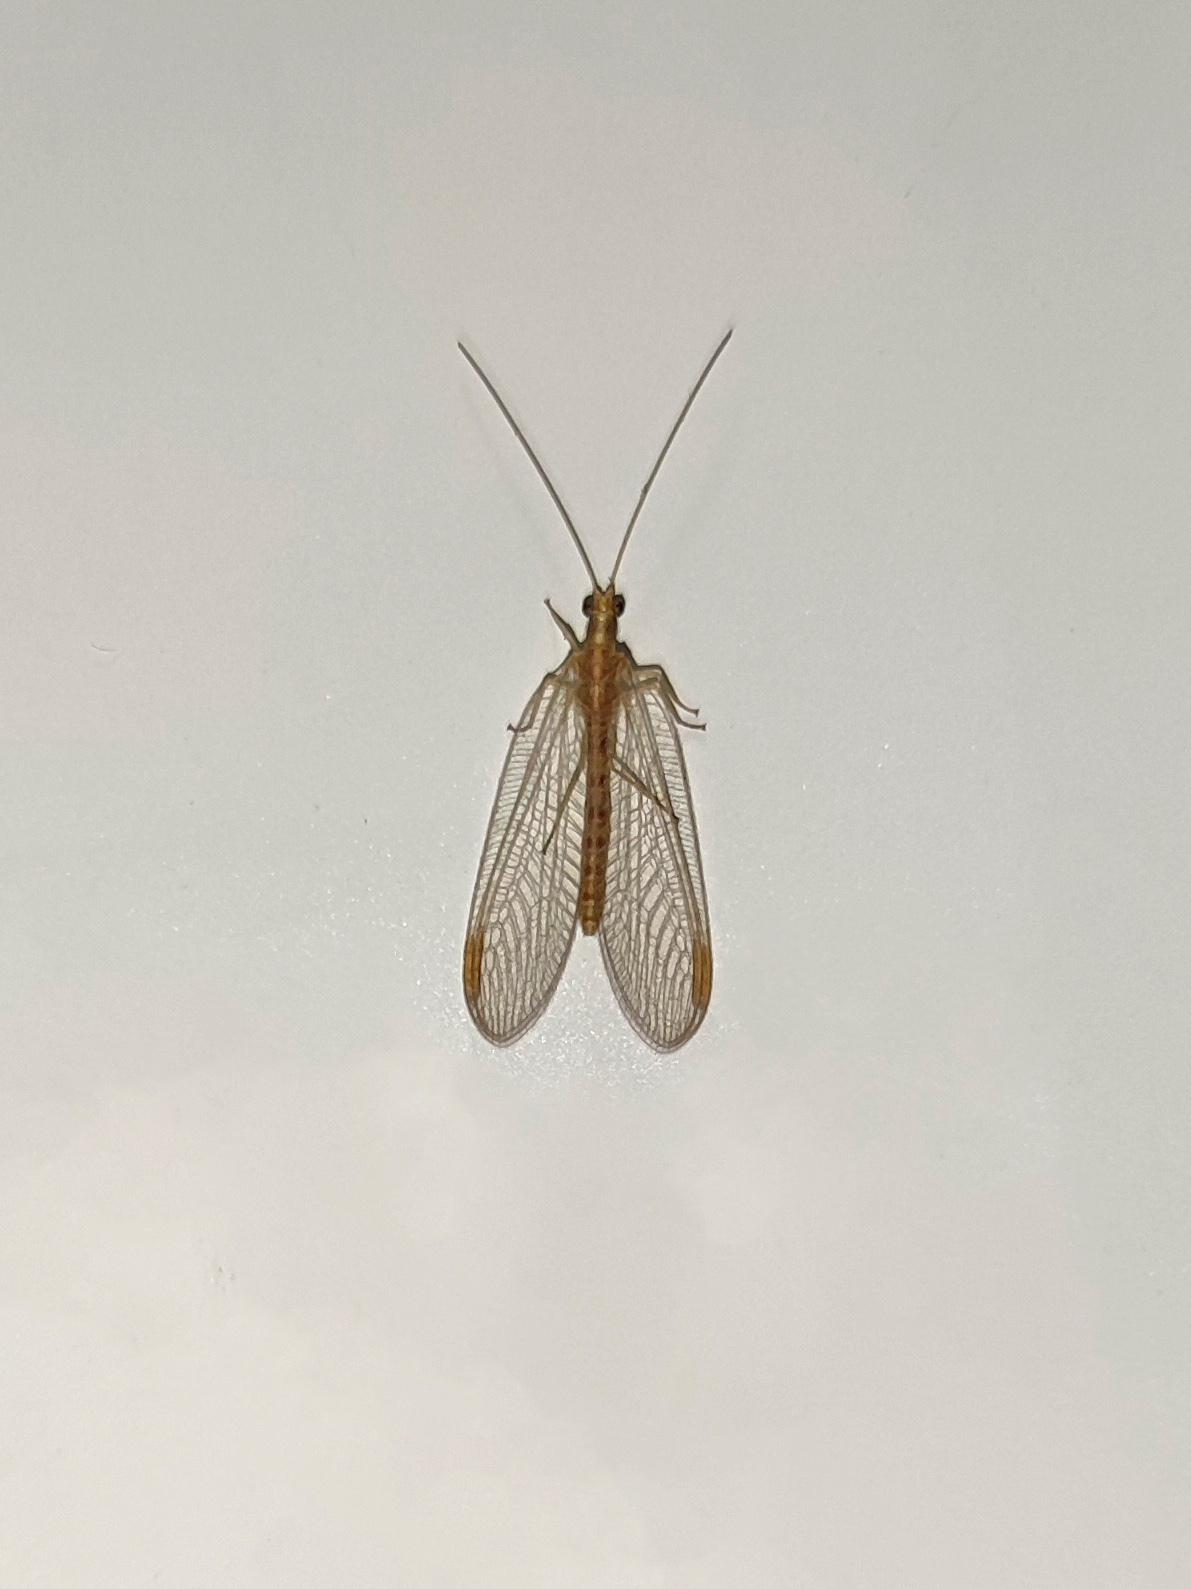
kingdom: Animalia
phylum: Arthropoda
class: Insecta
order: Neuroptera
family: Chrysopidae
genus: Chrysoperla
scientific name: Chrysoperla
